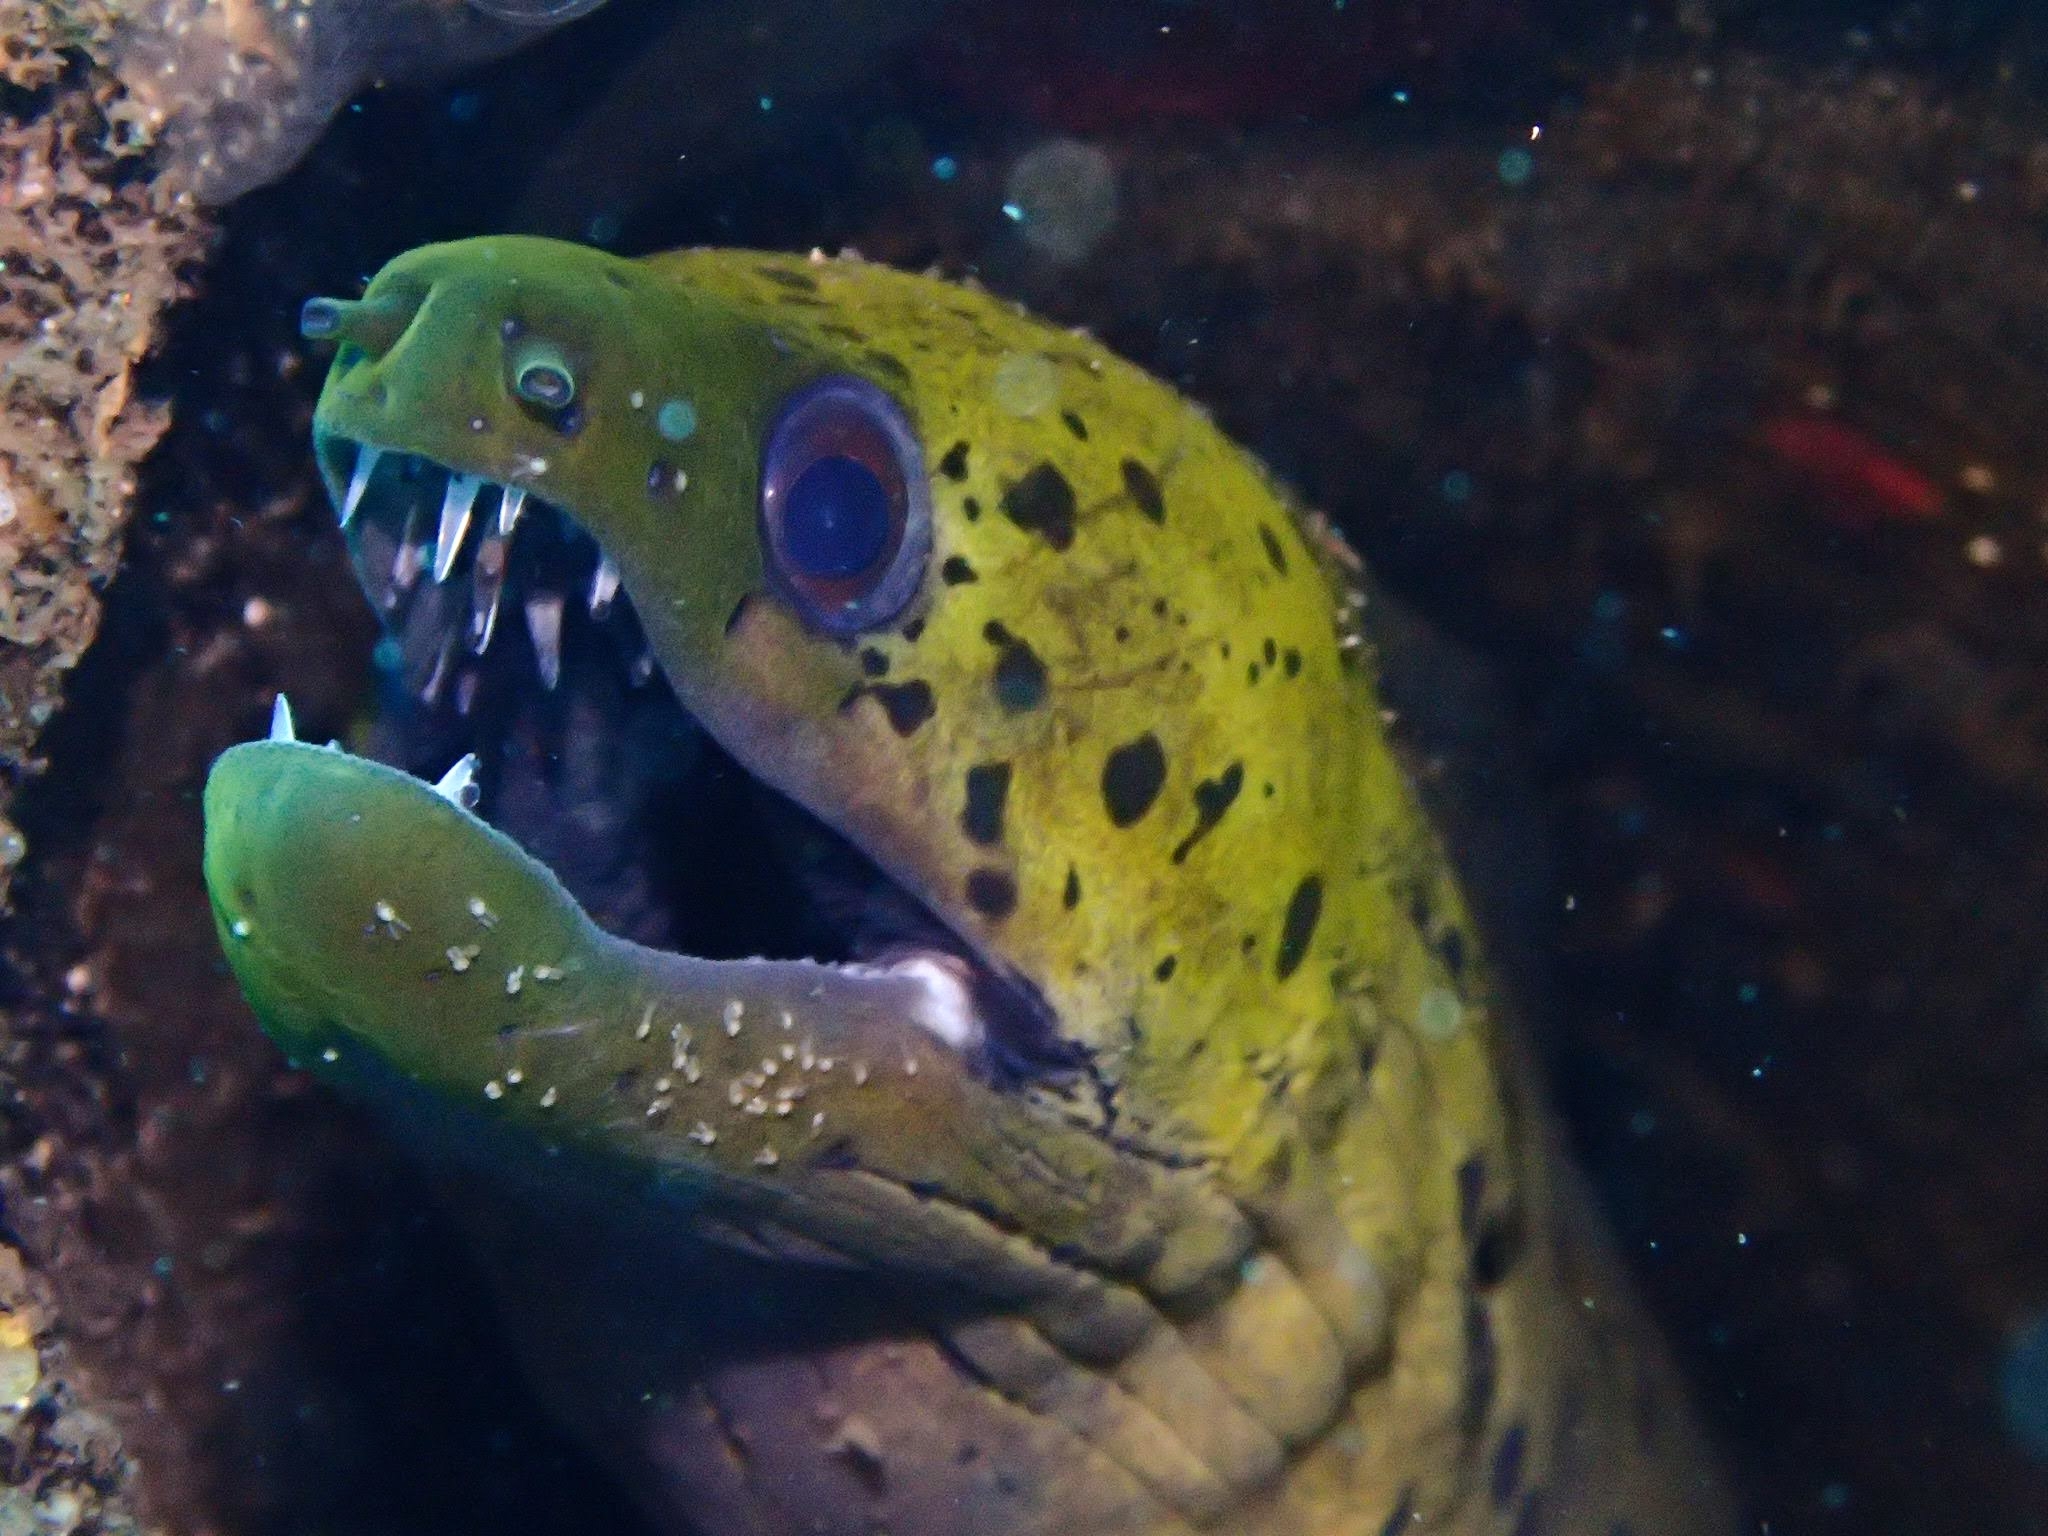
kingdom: Animalia
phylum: Chordata
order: Anguilliformes
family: Muraenidae
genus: Gymnothorax
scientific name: Gymnothorax fimbriatus
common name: Darkspotted moray
